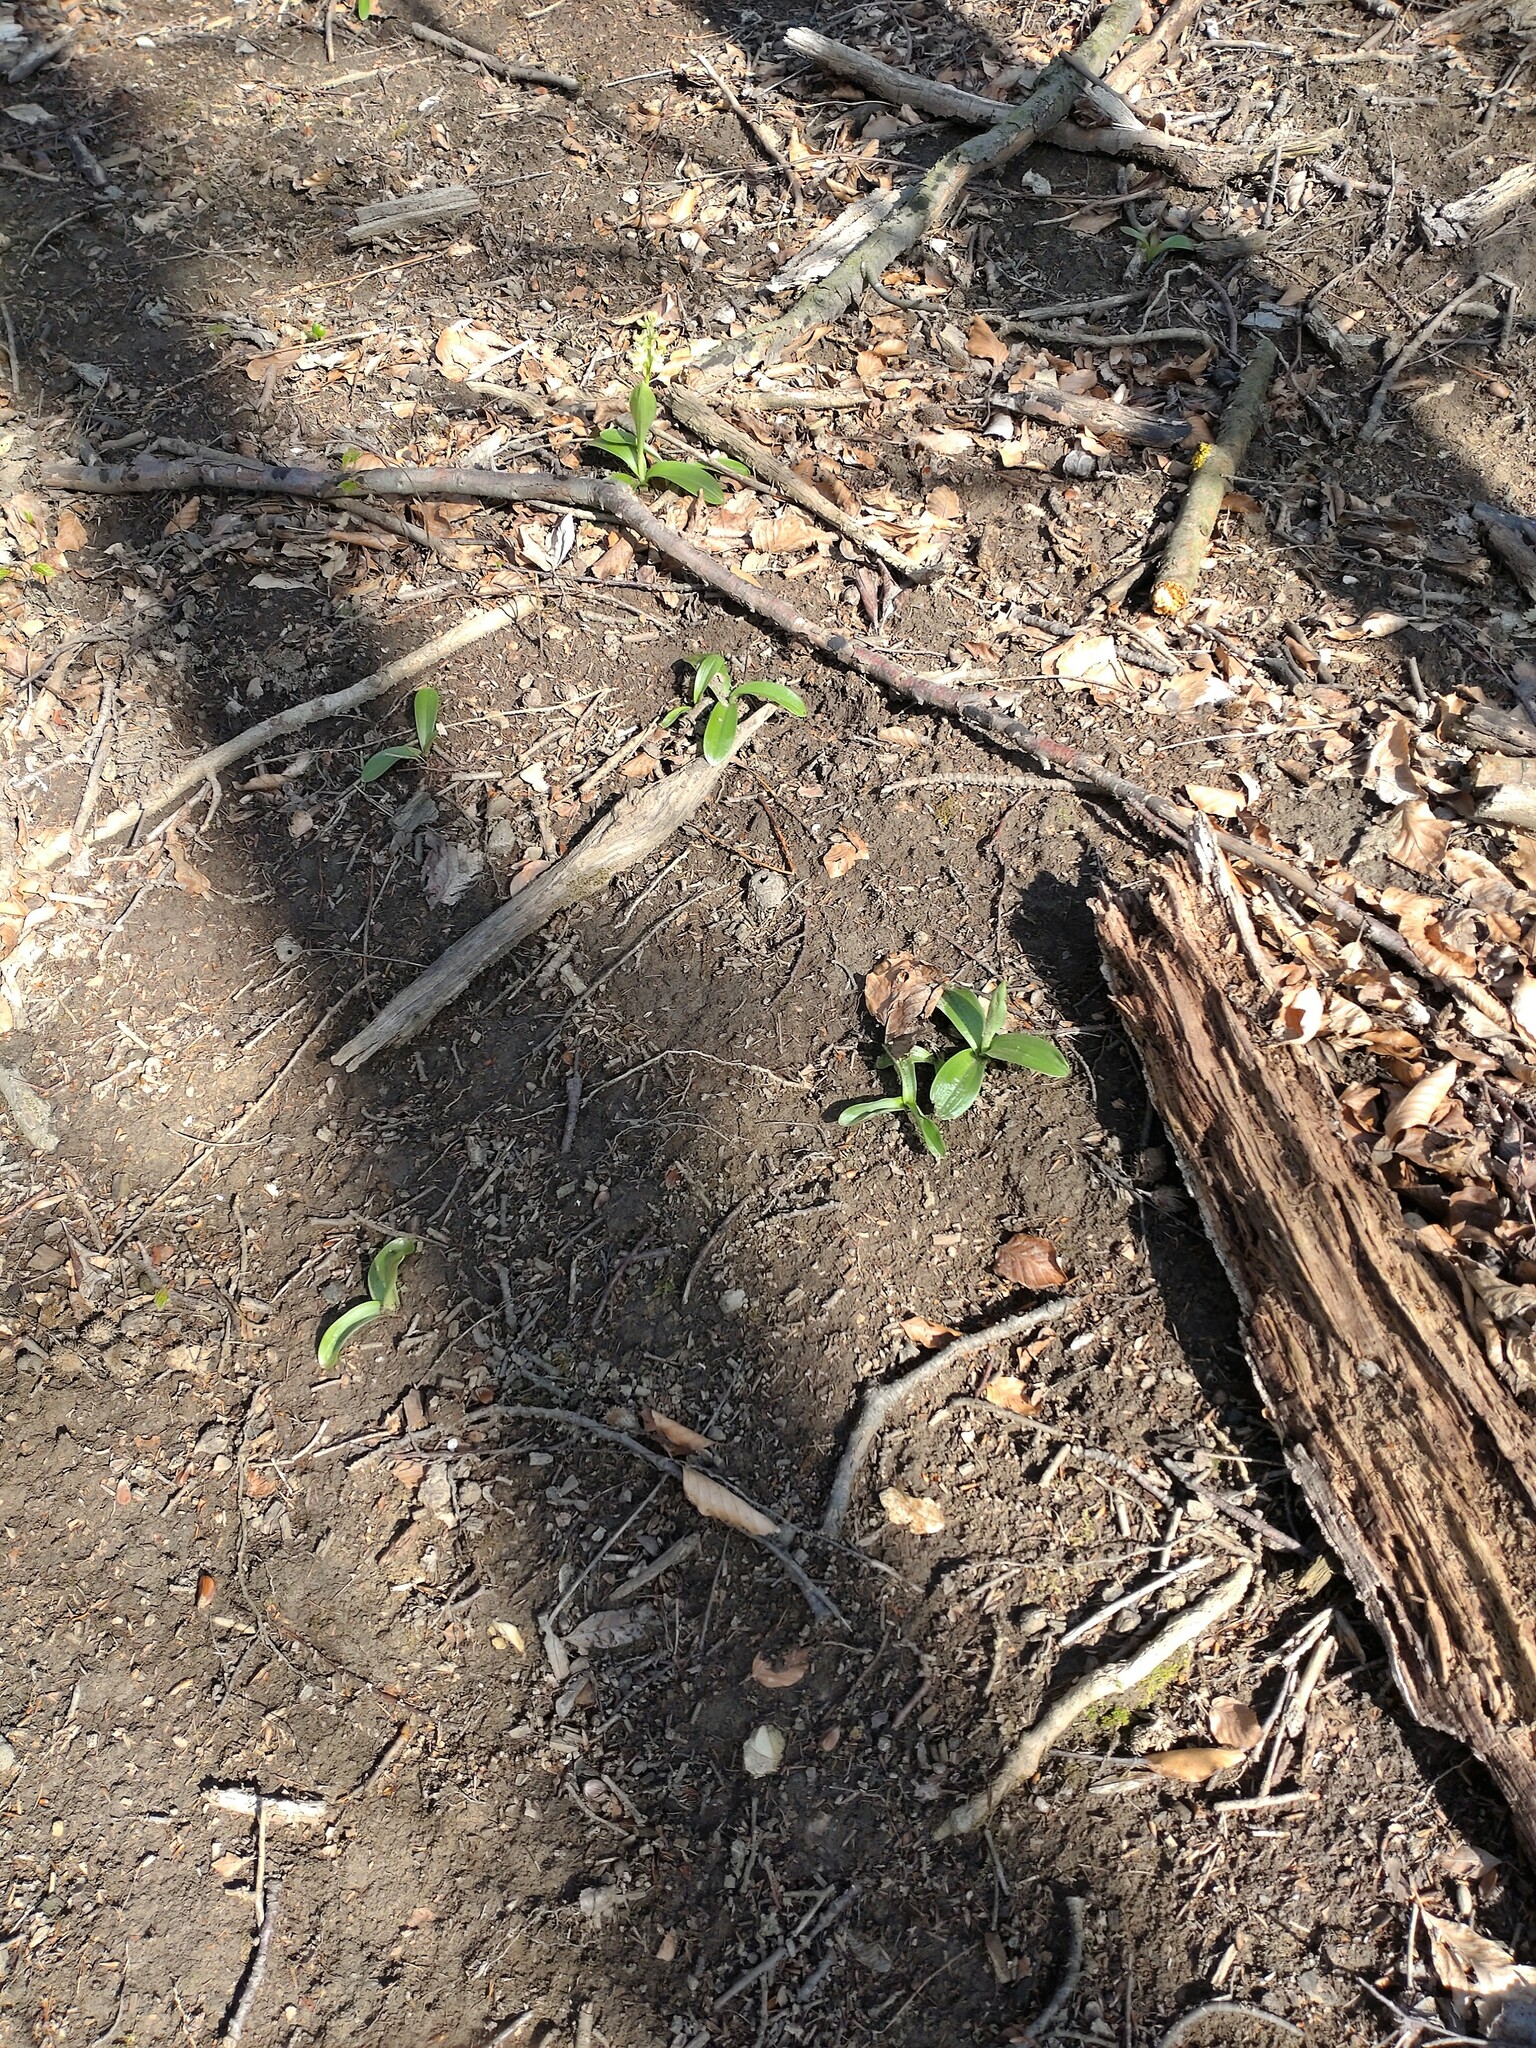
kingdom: Plantae
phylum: Tracheophyta
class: Liliopsida
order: Asparagales
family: Orchidaceae
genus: Orchis
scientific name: Orchis pallens
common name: Pale-flowered orchid
